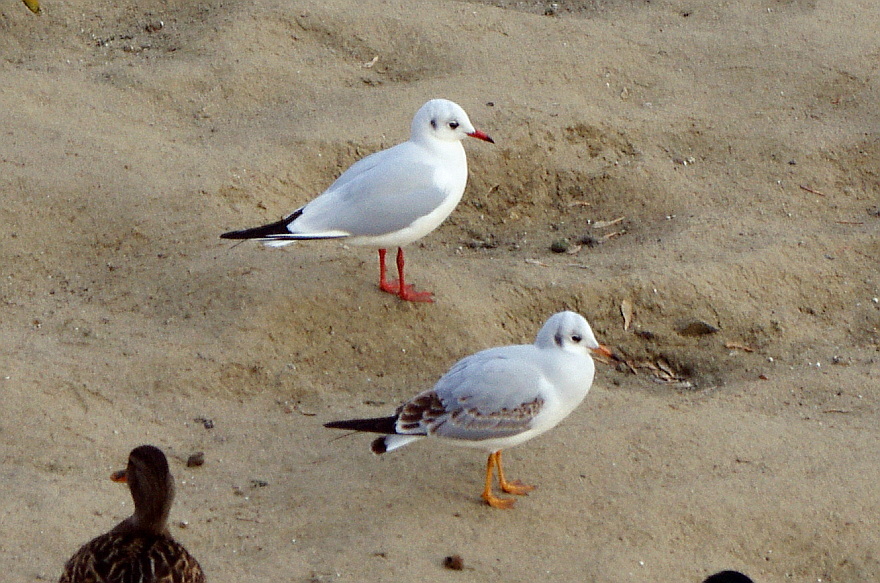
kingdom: Animalia
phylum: Chordata
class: Aves
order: Charadriiformes
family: Laridae
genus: Chroicocephalus
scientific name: Chroicocephalus ridibundus
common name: Black-headed gull
